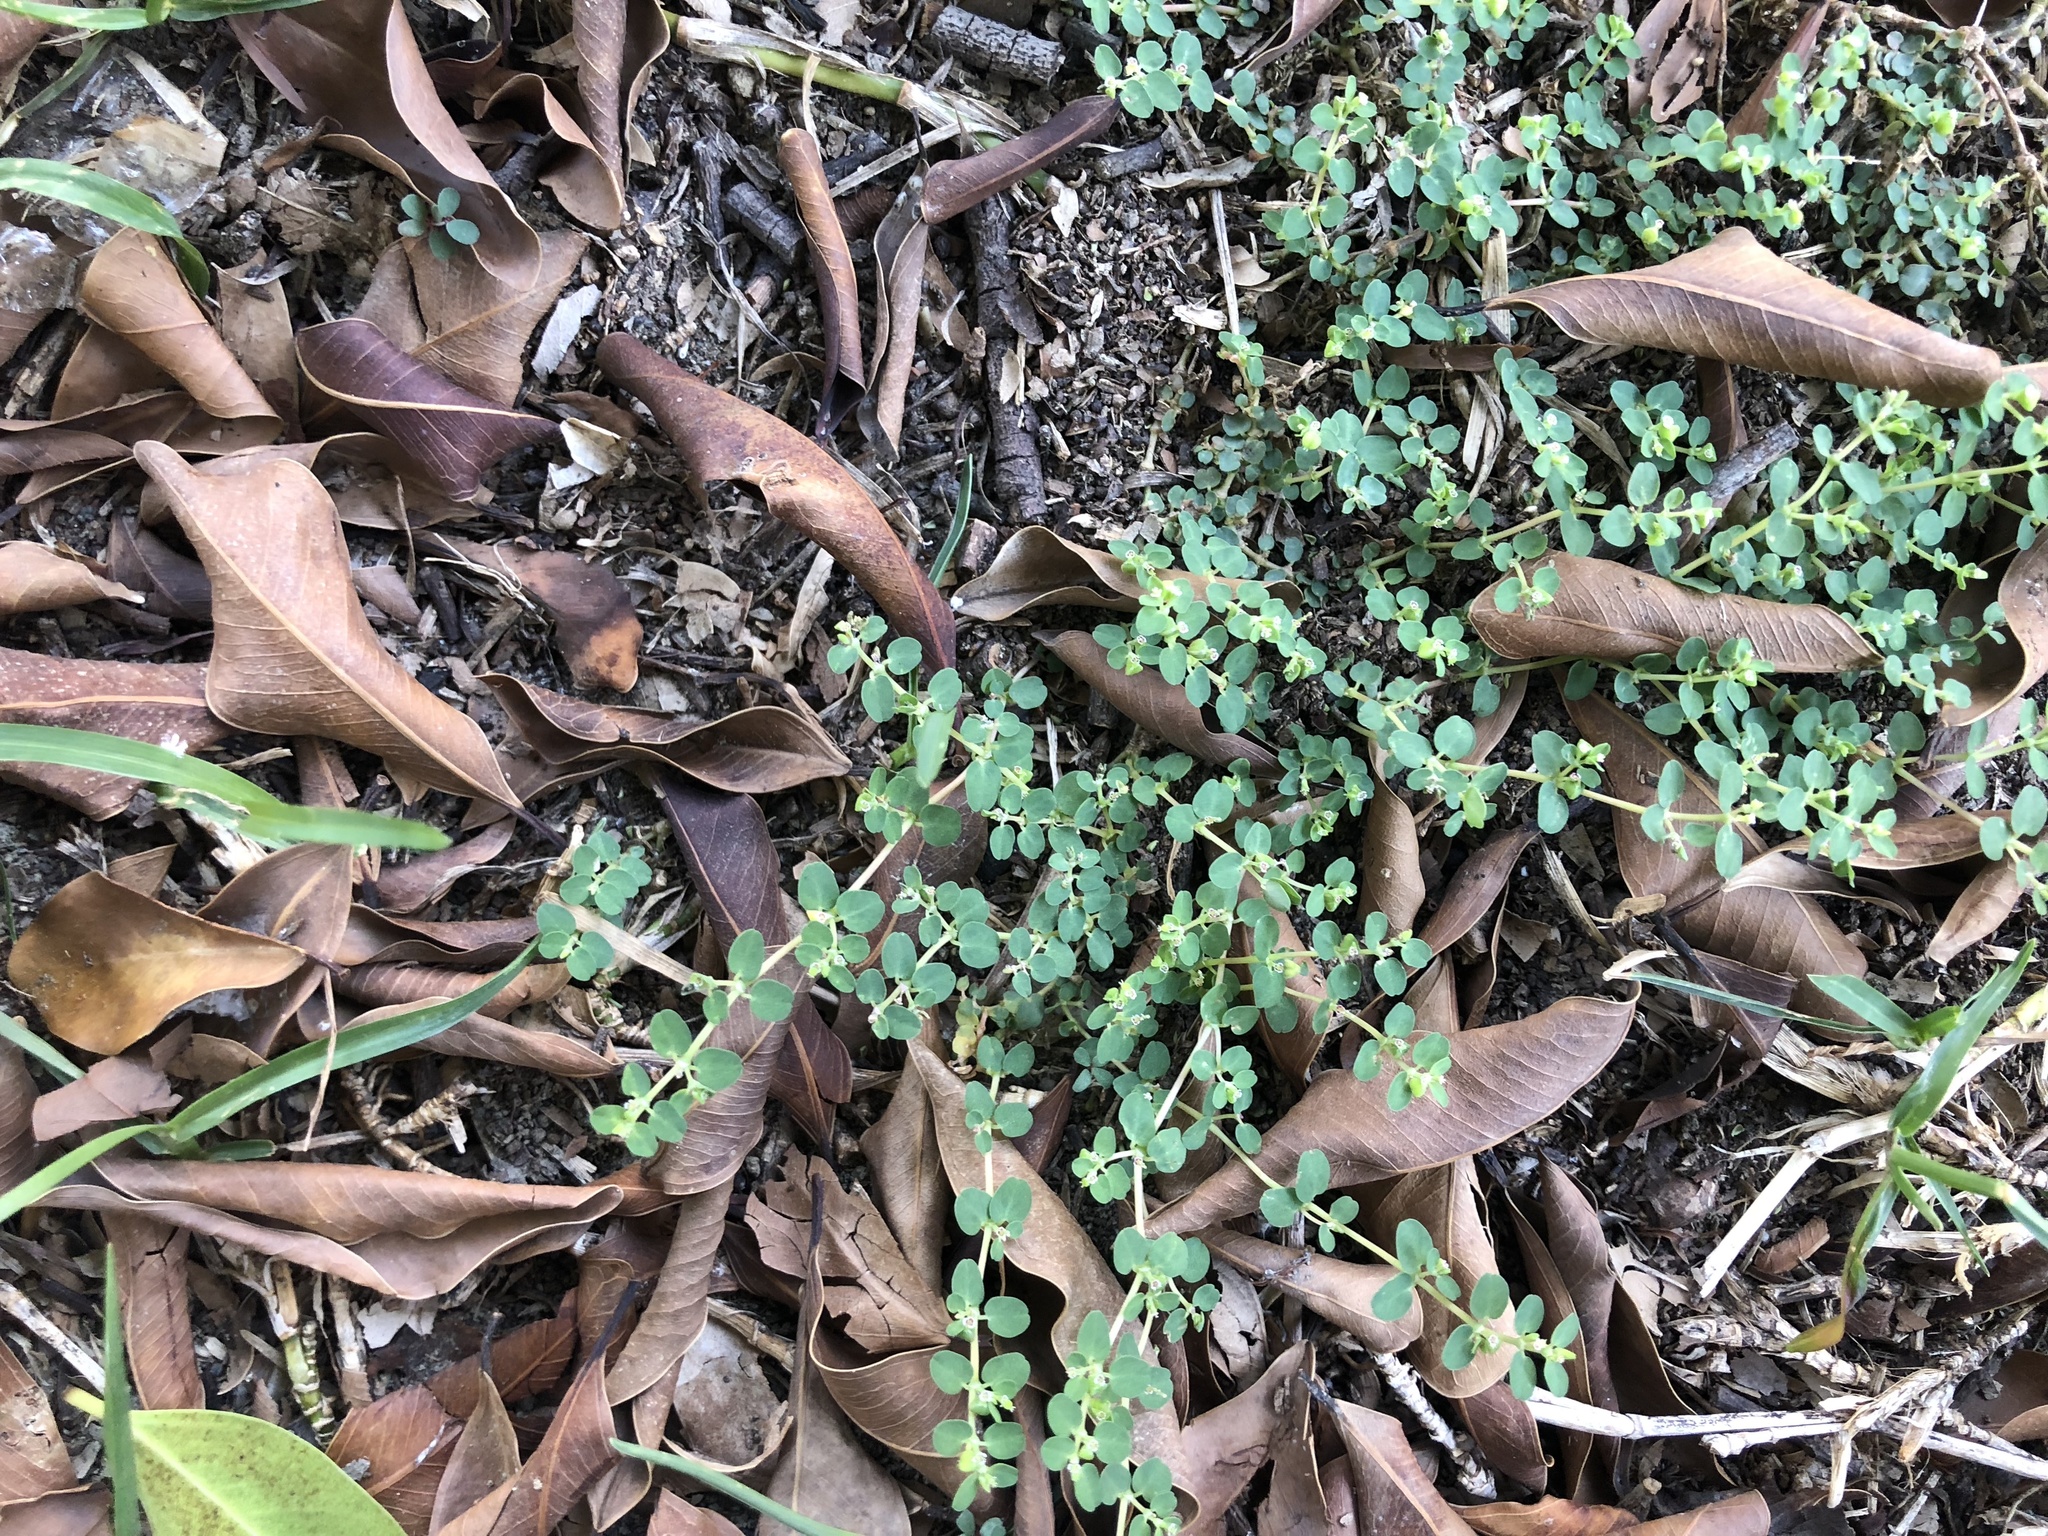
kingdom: Plantae
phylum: Tracheophyta
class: Magnoliopsida
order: Malpighiales
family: Euphorbiaceae
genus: Euphorbia
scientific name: Euphorbia serpens
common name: Matted sandmat
